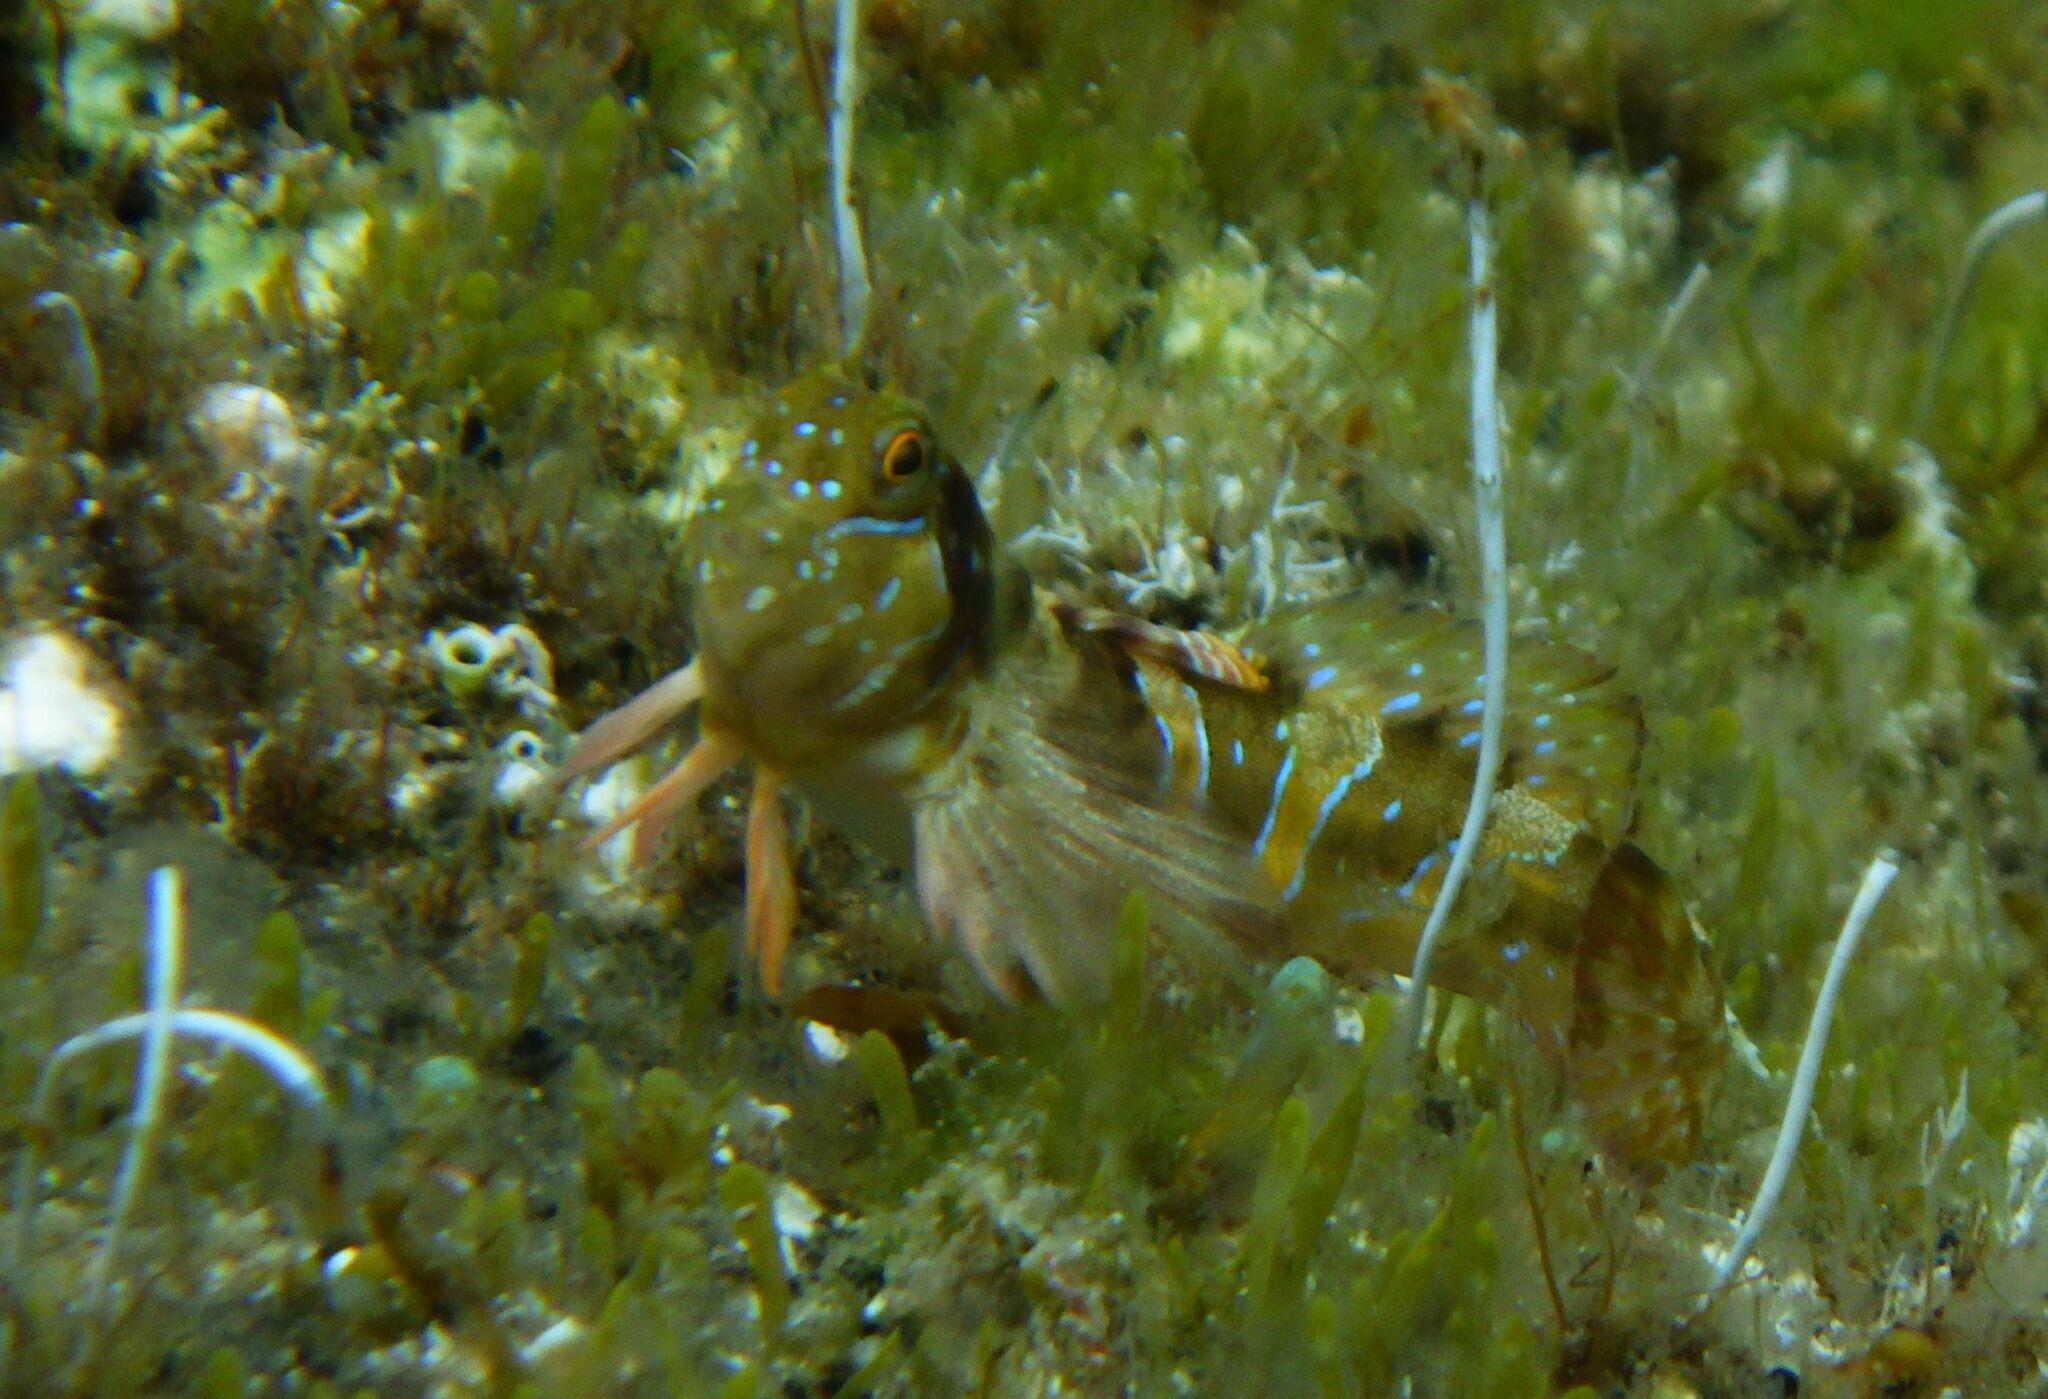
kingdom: Animalia
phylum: Chordata
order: Perciformes
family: Blenniidae
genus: Aidablennius
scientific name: Aidablennius sphynx
